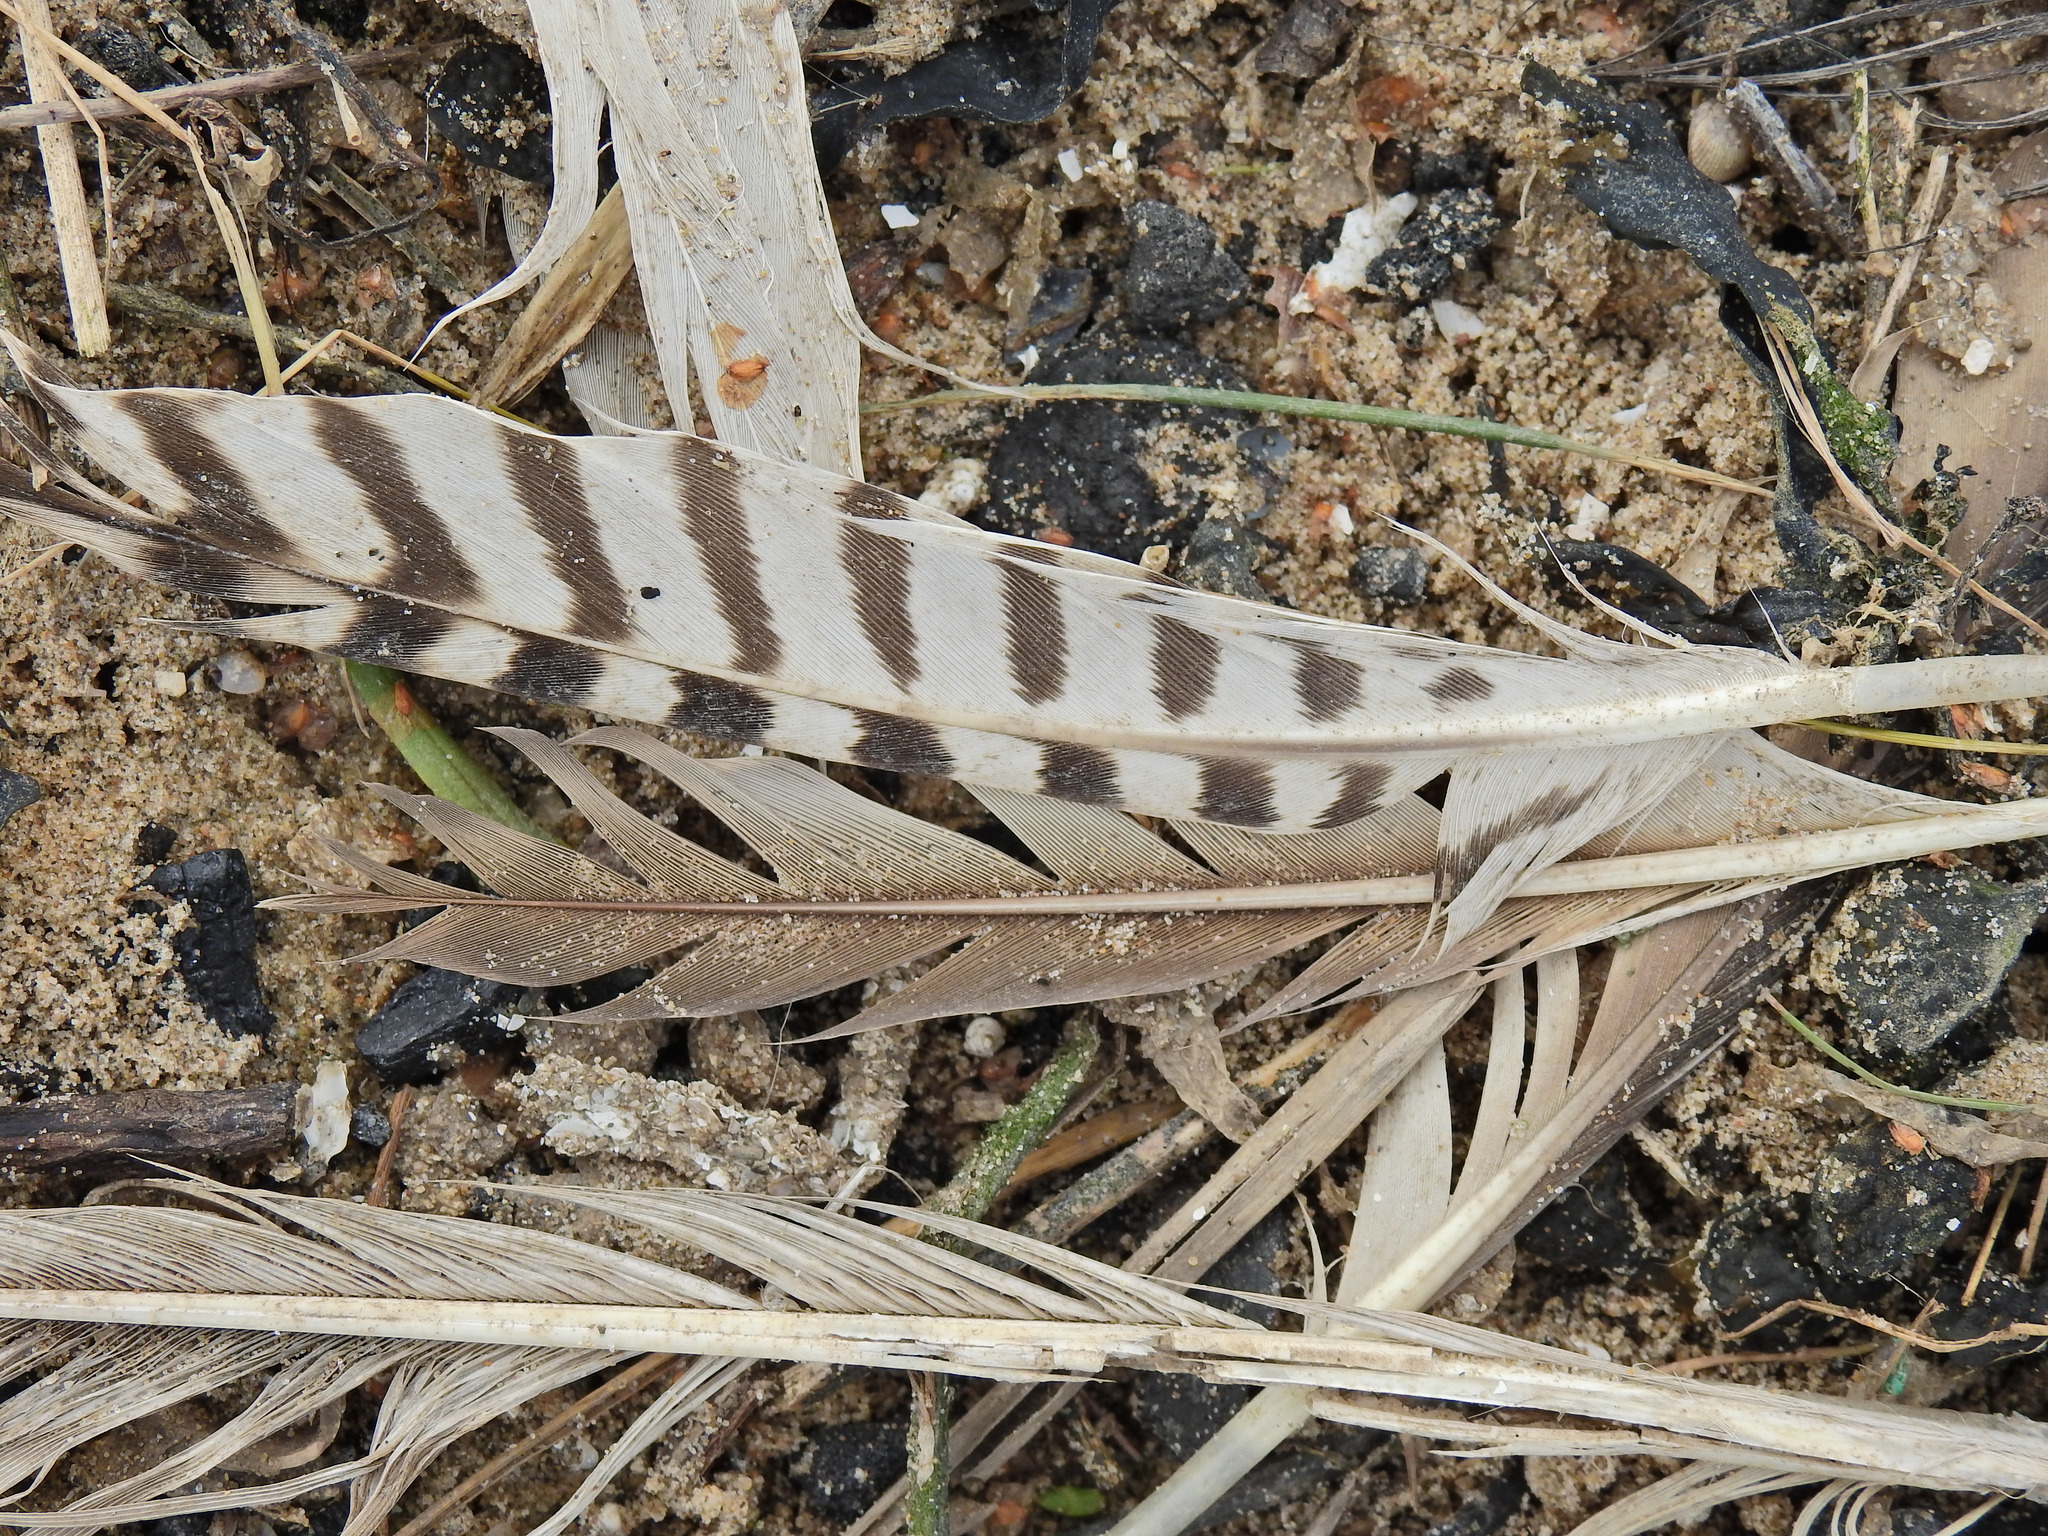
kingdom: Animalia
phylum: Chordata
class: Aves
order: Charadriiformes
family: Scolopacidae
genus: Numenius
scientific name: Numenius arquata
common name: Eurasian curlew
